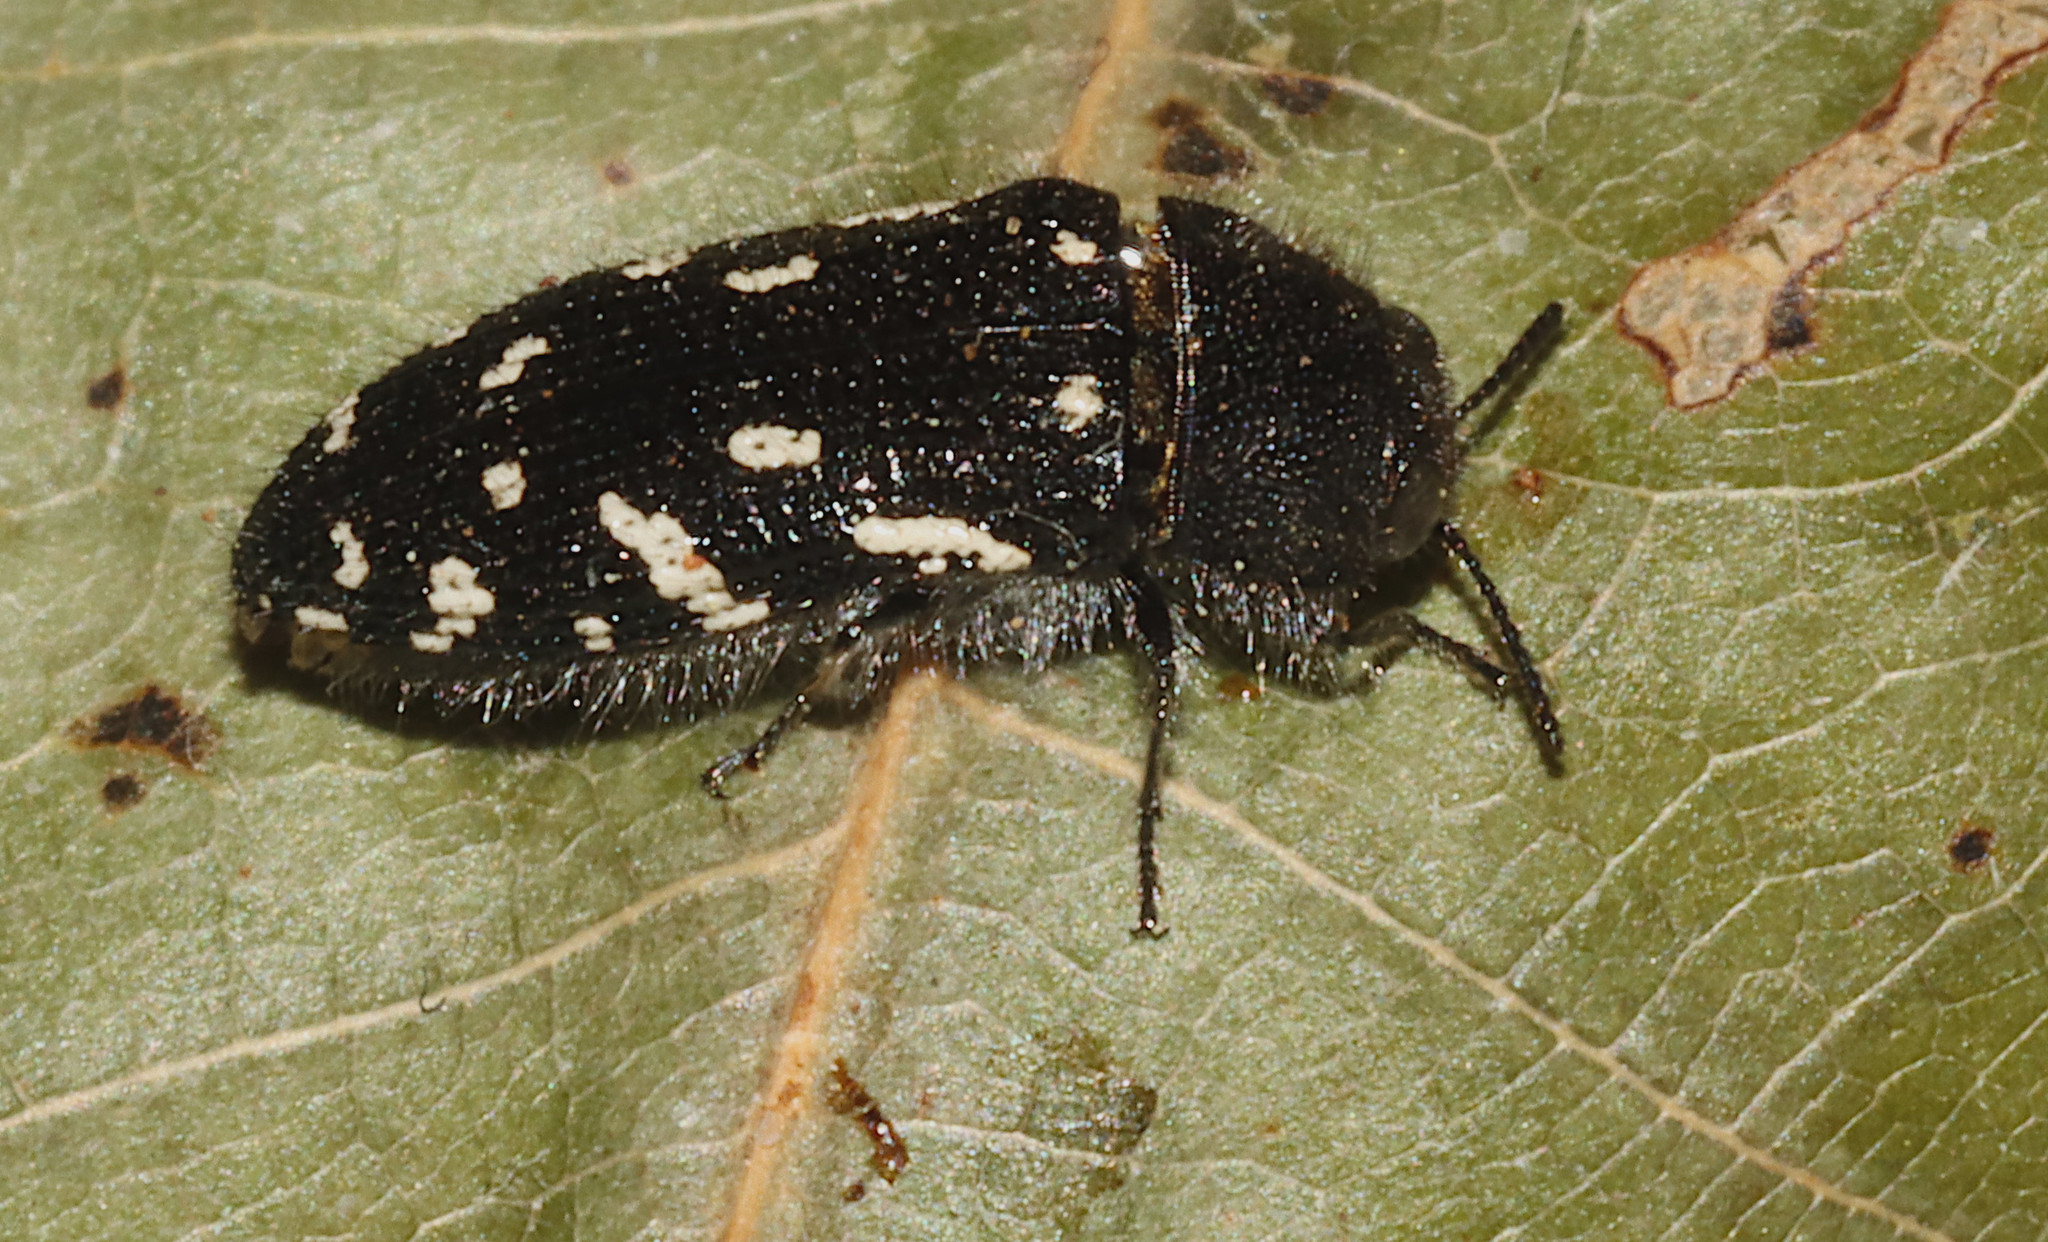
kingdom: Animalia
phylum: Arthropoda
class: Insecta
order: Coleoptera
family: Buprestidae
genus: Acmaeodera
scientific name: Acmaeodera ornata
